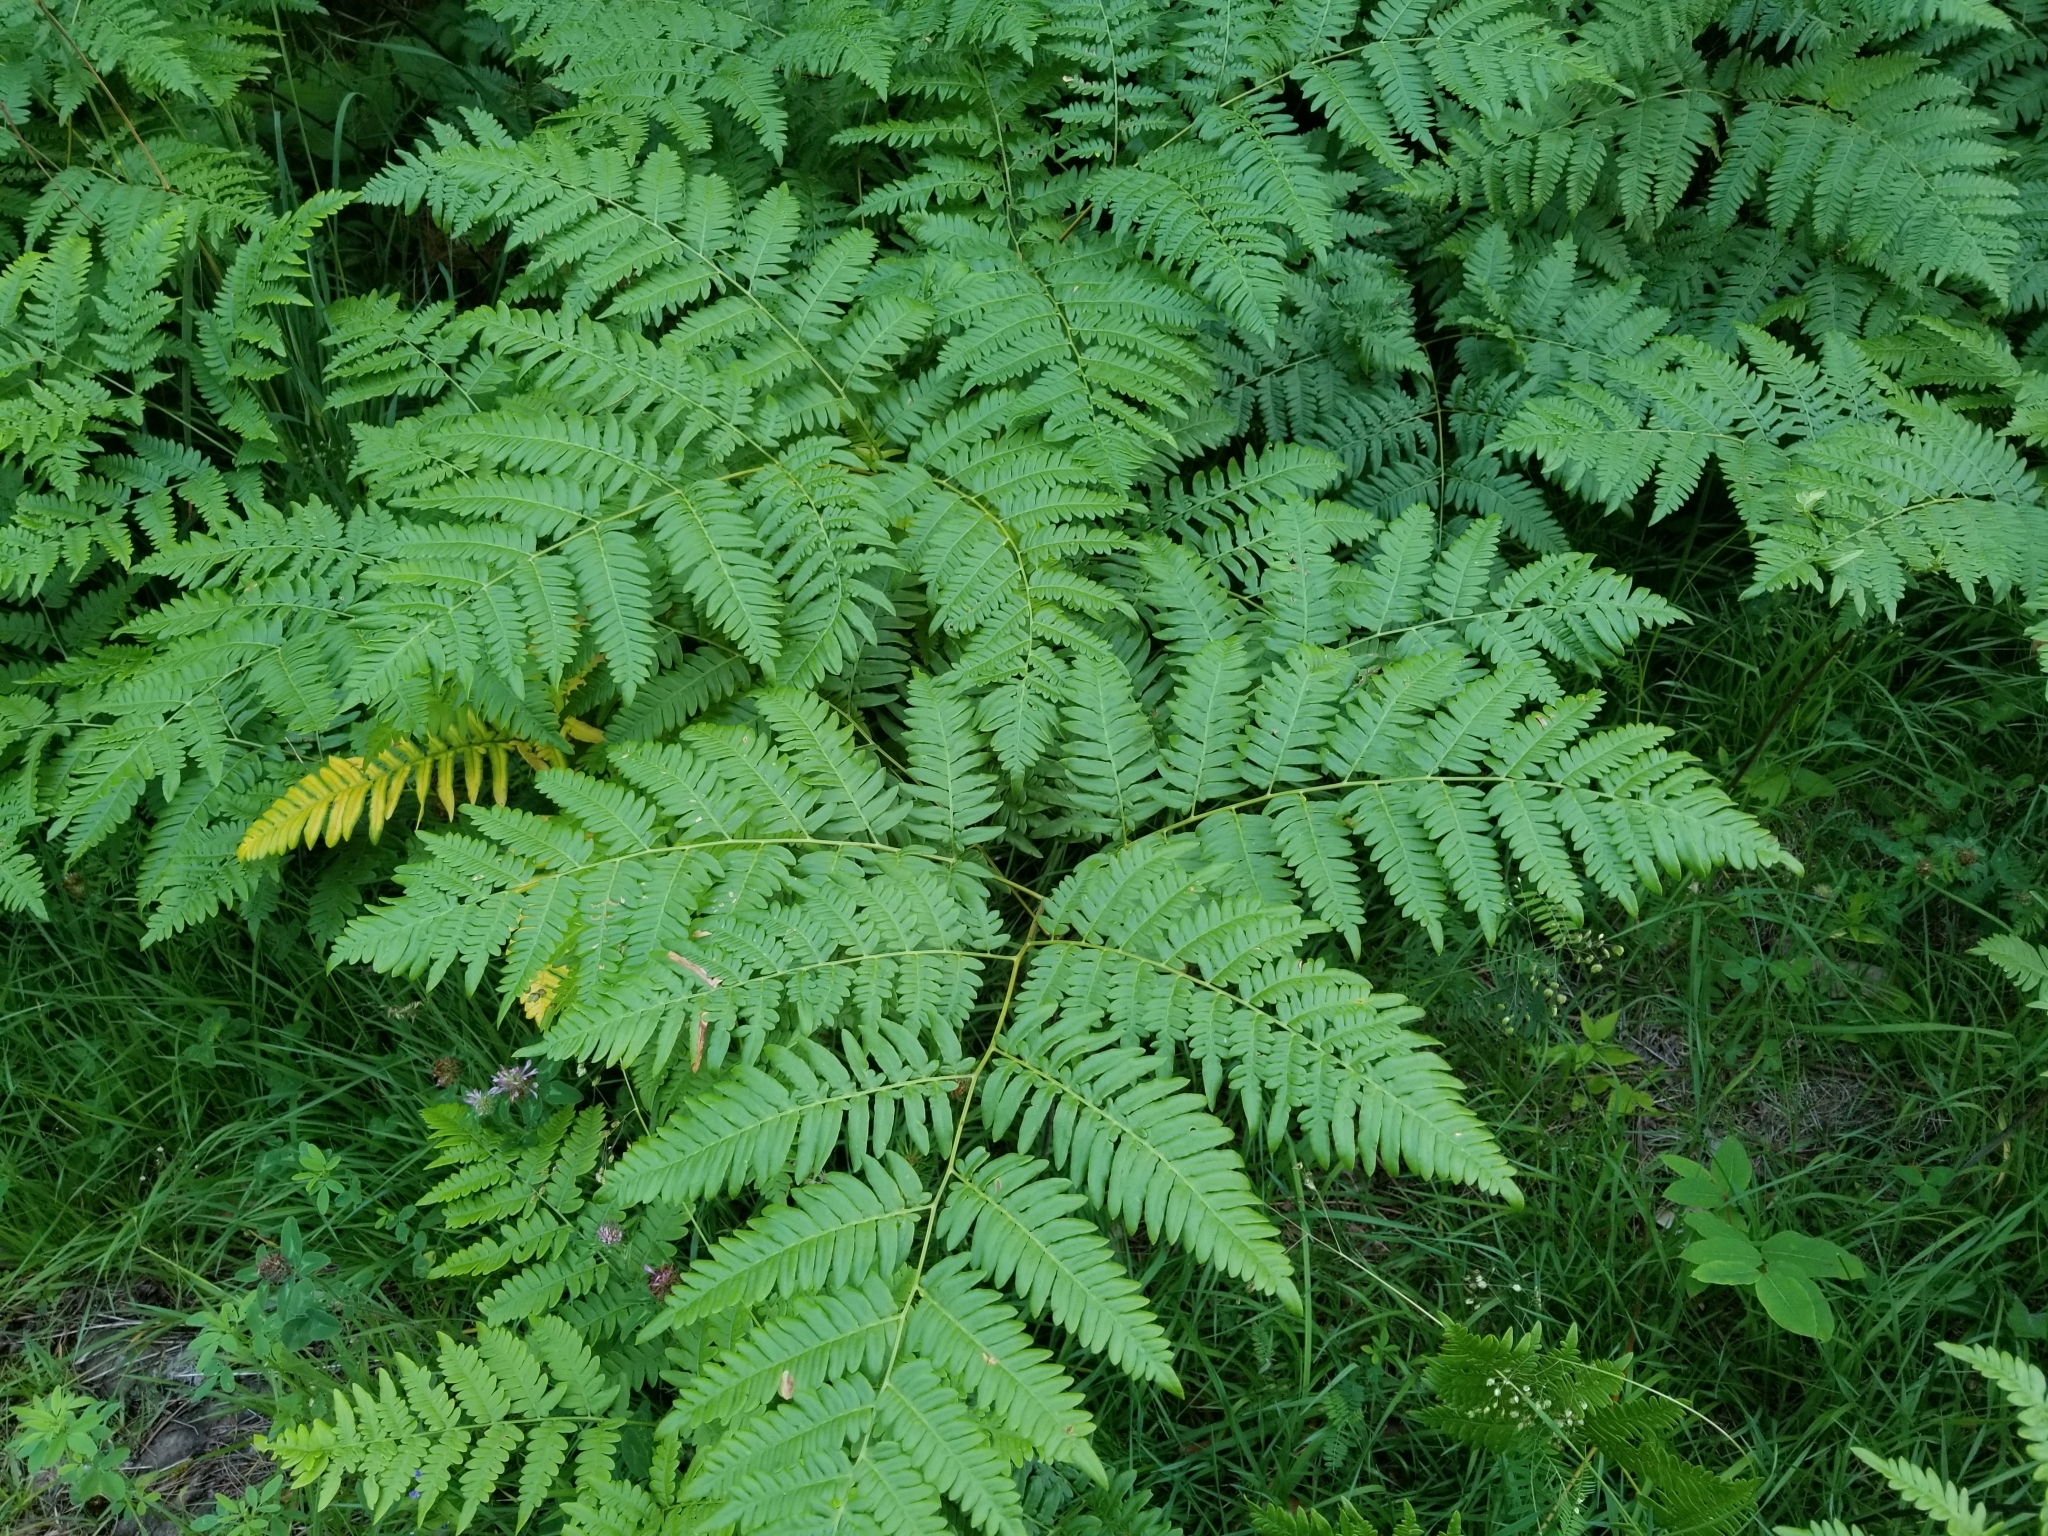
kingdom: Plantae
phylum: Tracheophyta
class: Polypodiopsida
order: Polypodiales
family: Dennstaedtiaceae
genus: Pteridium
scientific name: Pteridium aquilinum
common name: Bracken
